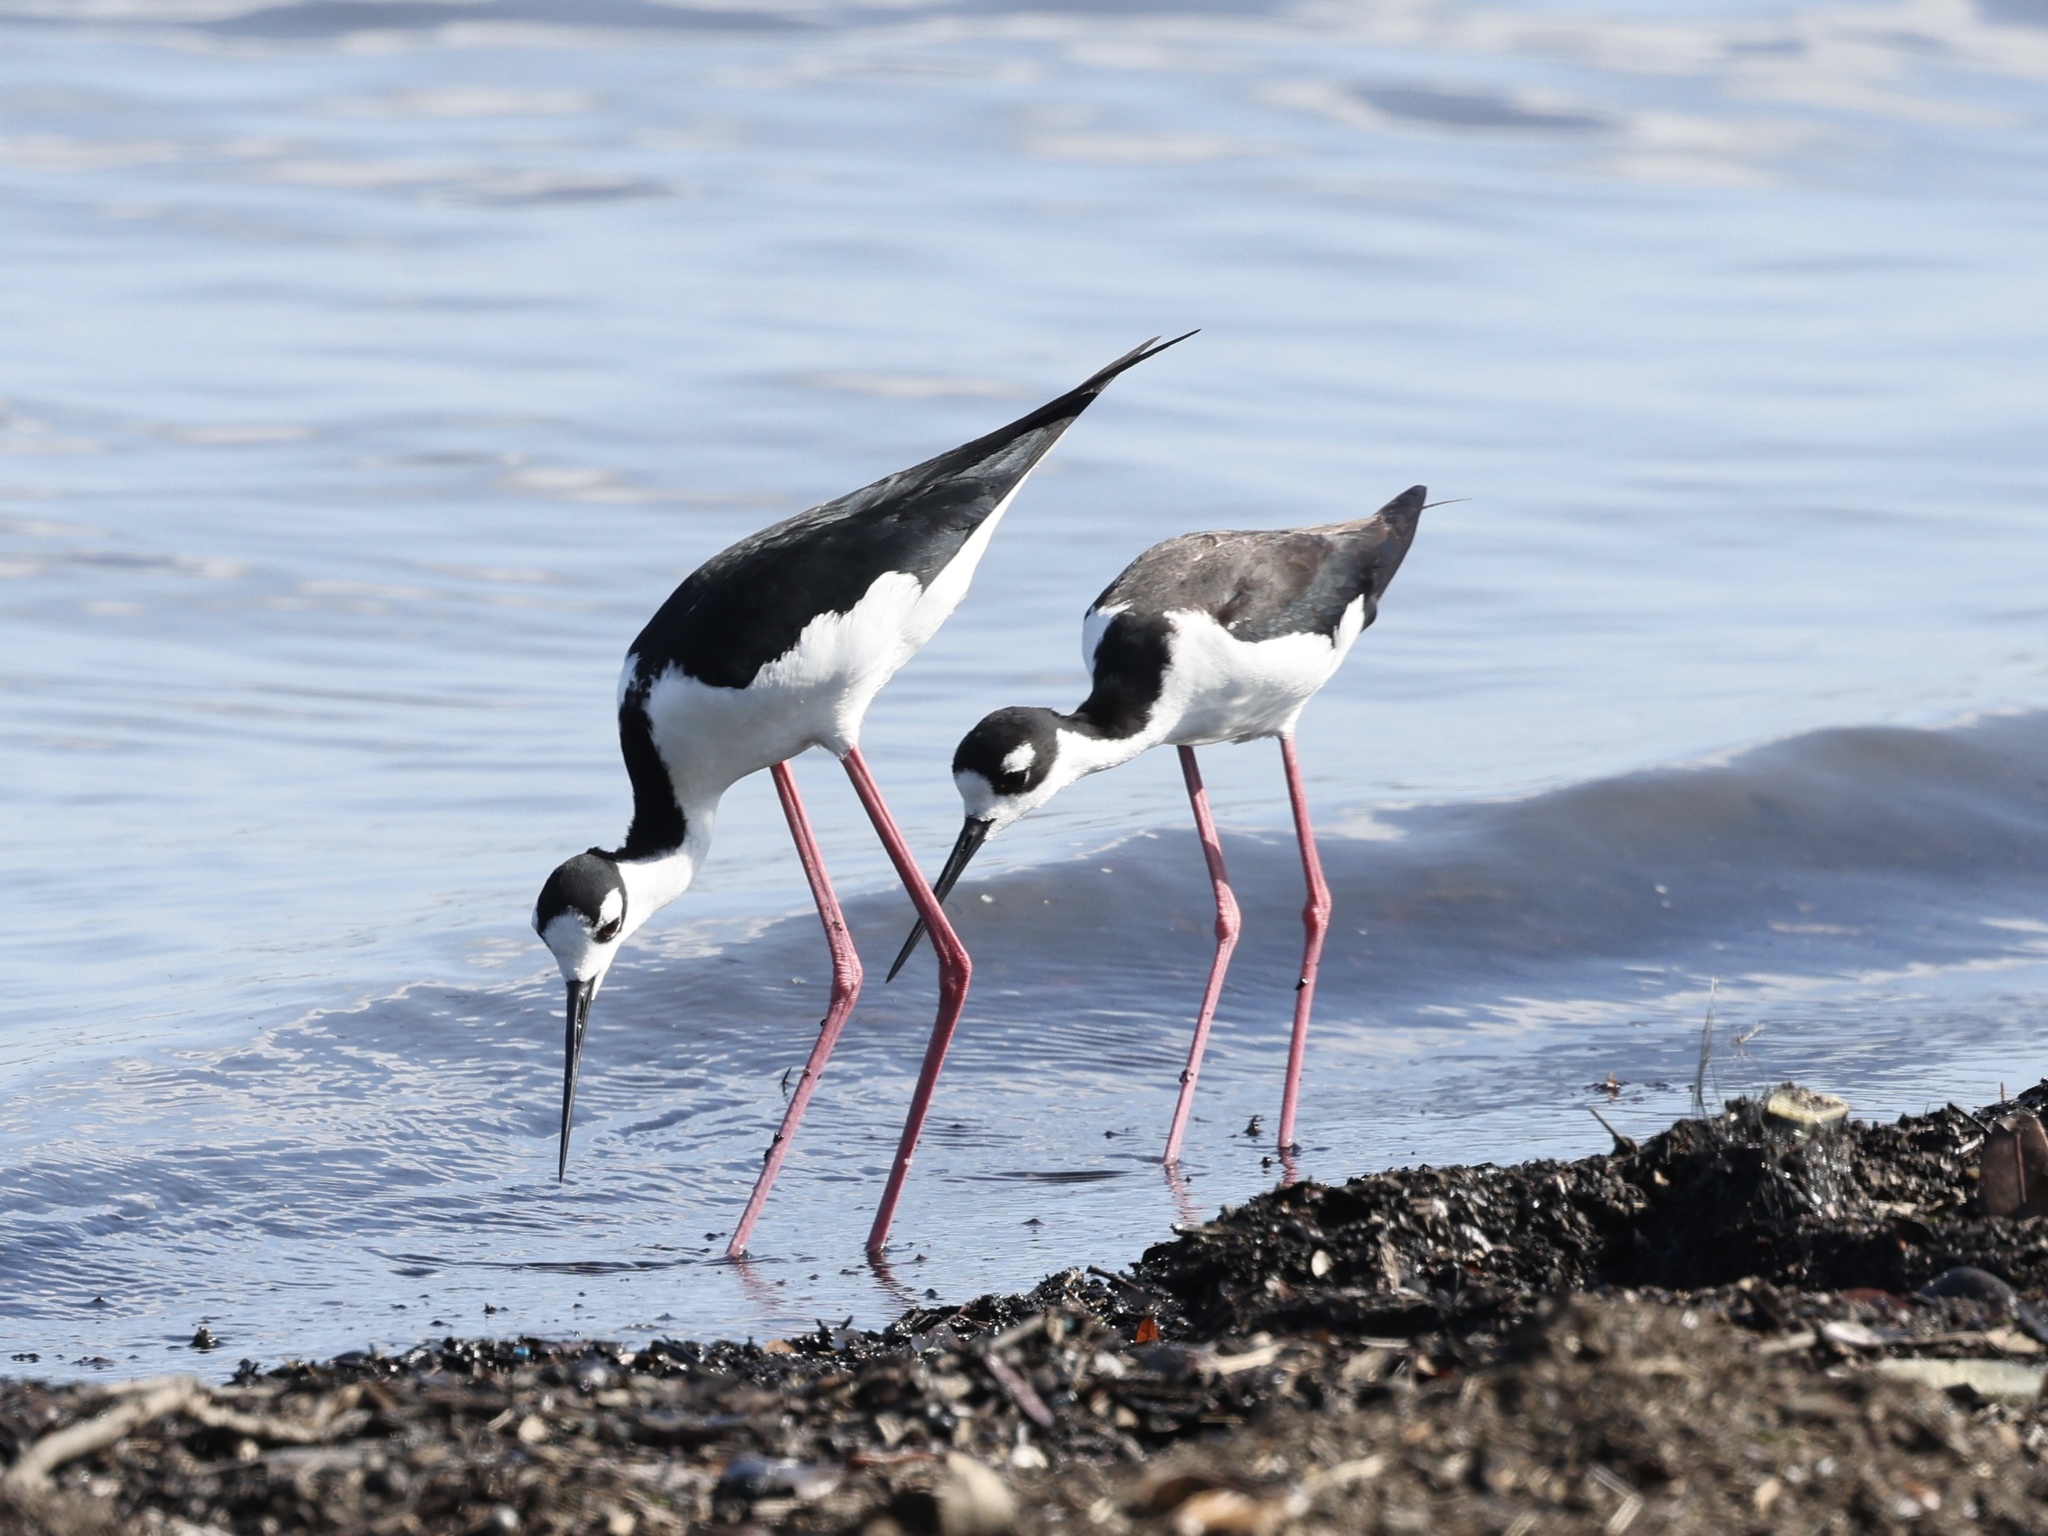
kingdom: Animalia
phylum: Chordata
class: Aves
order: Charadriiformes
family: Recurvirostridae
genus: Himantopus
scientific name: Himantopus mexicanus
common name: Black-necked stilt
